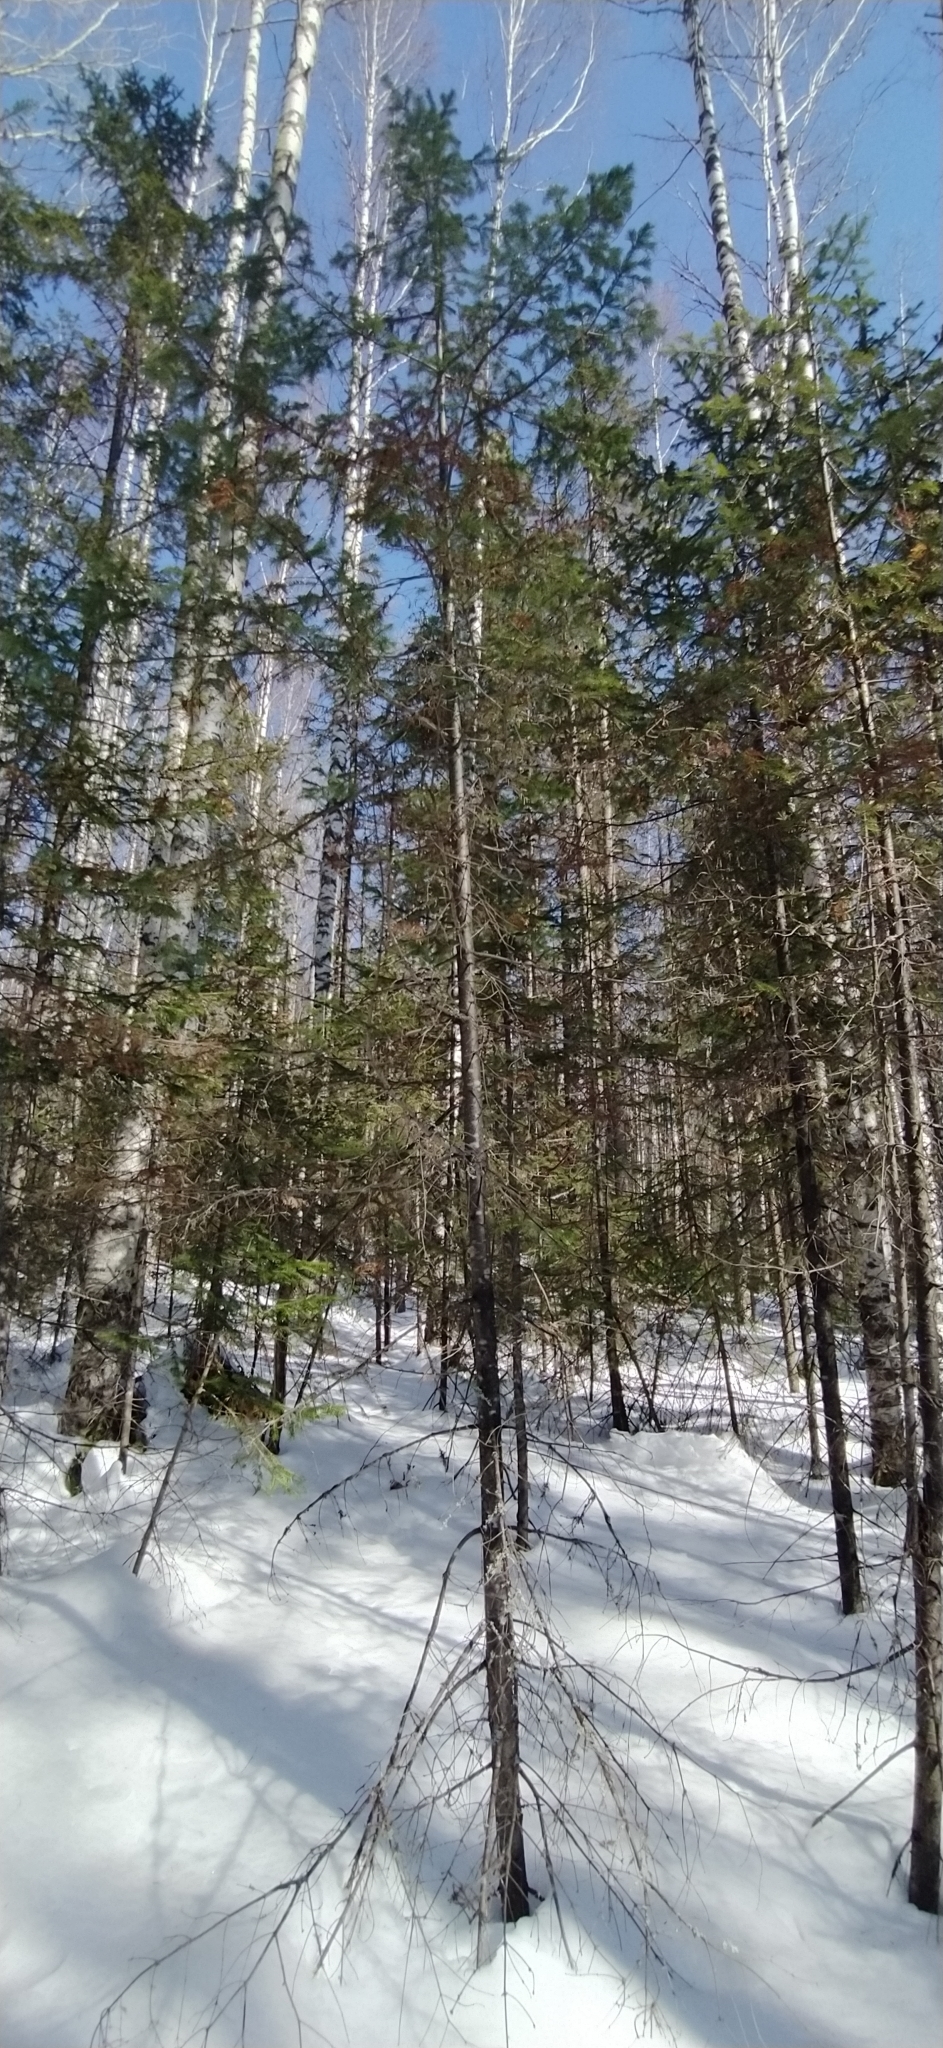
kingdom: Plantae
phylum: Tracheophyta
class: Pinopsida
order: Pinales
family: Pinaceae
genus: Abies
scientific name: Abies sibirica
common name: Siberian fir
